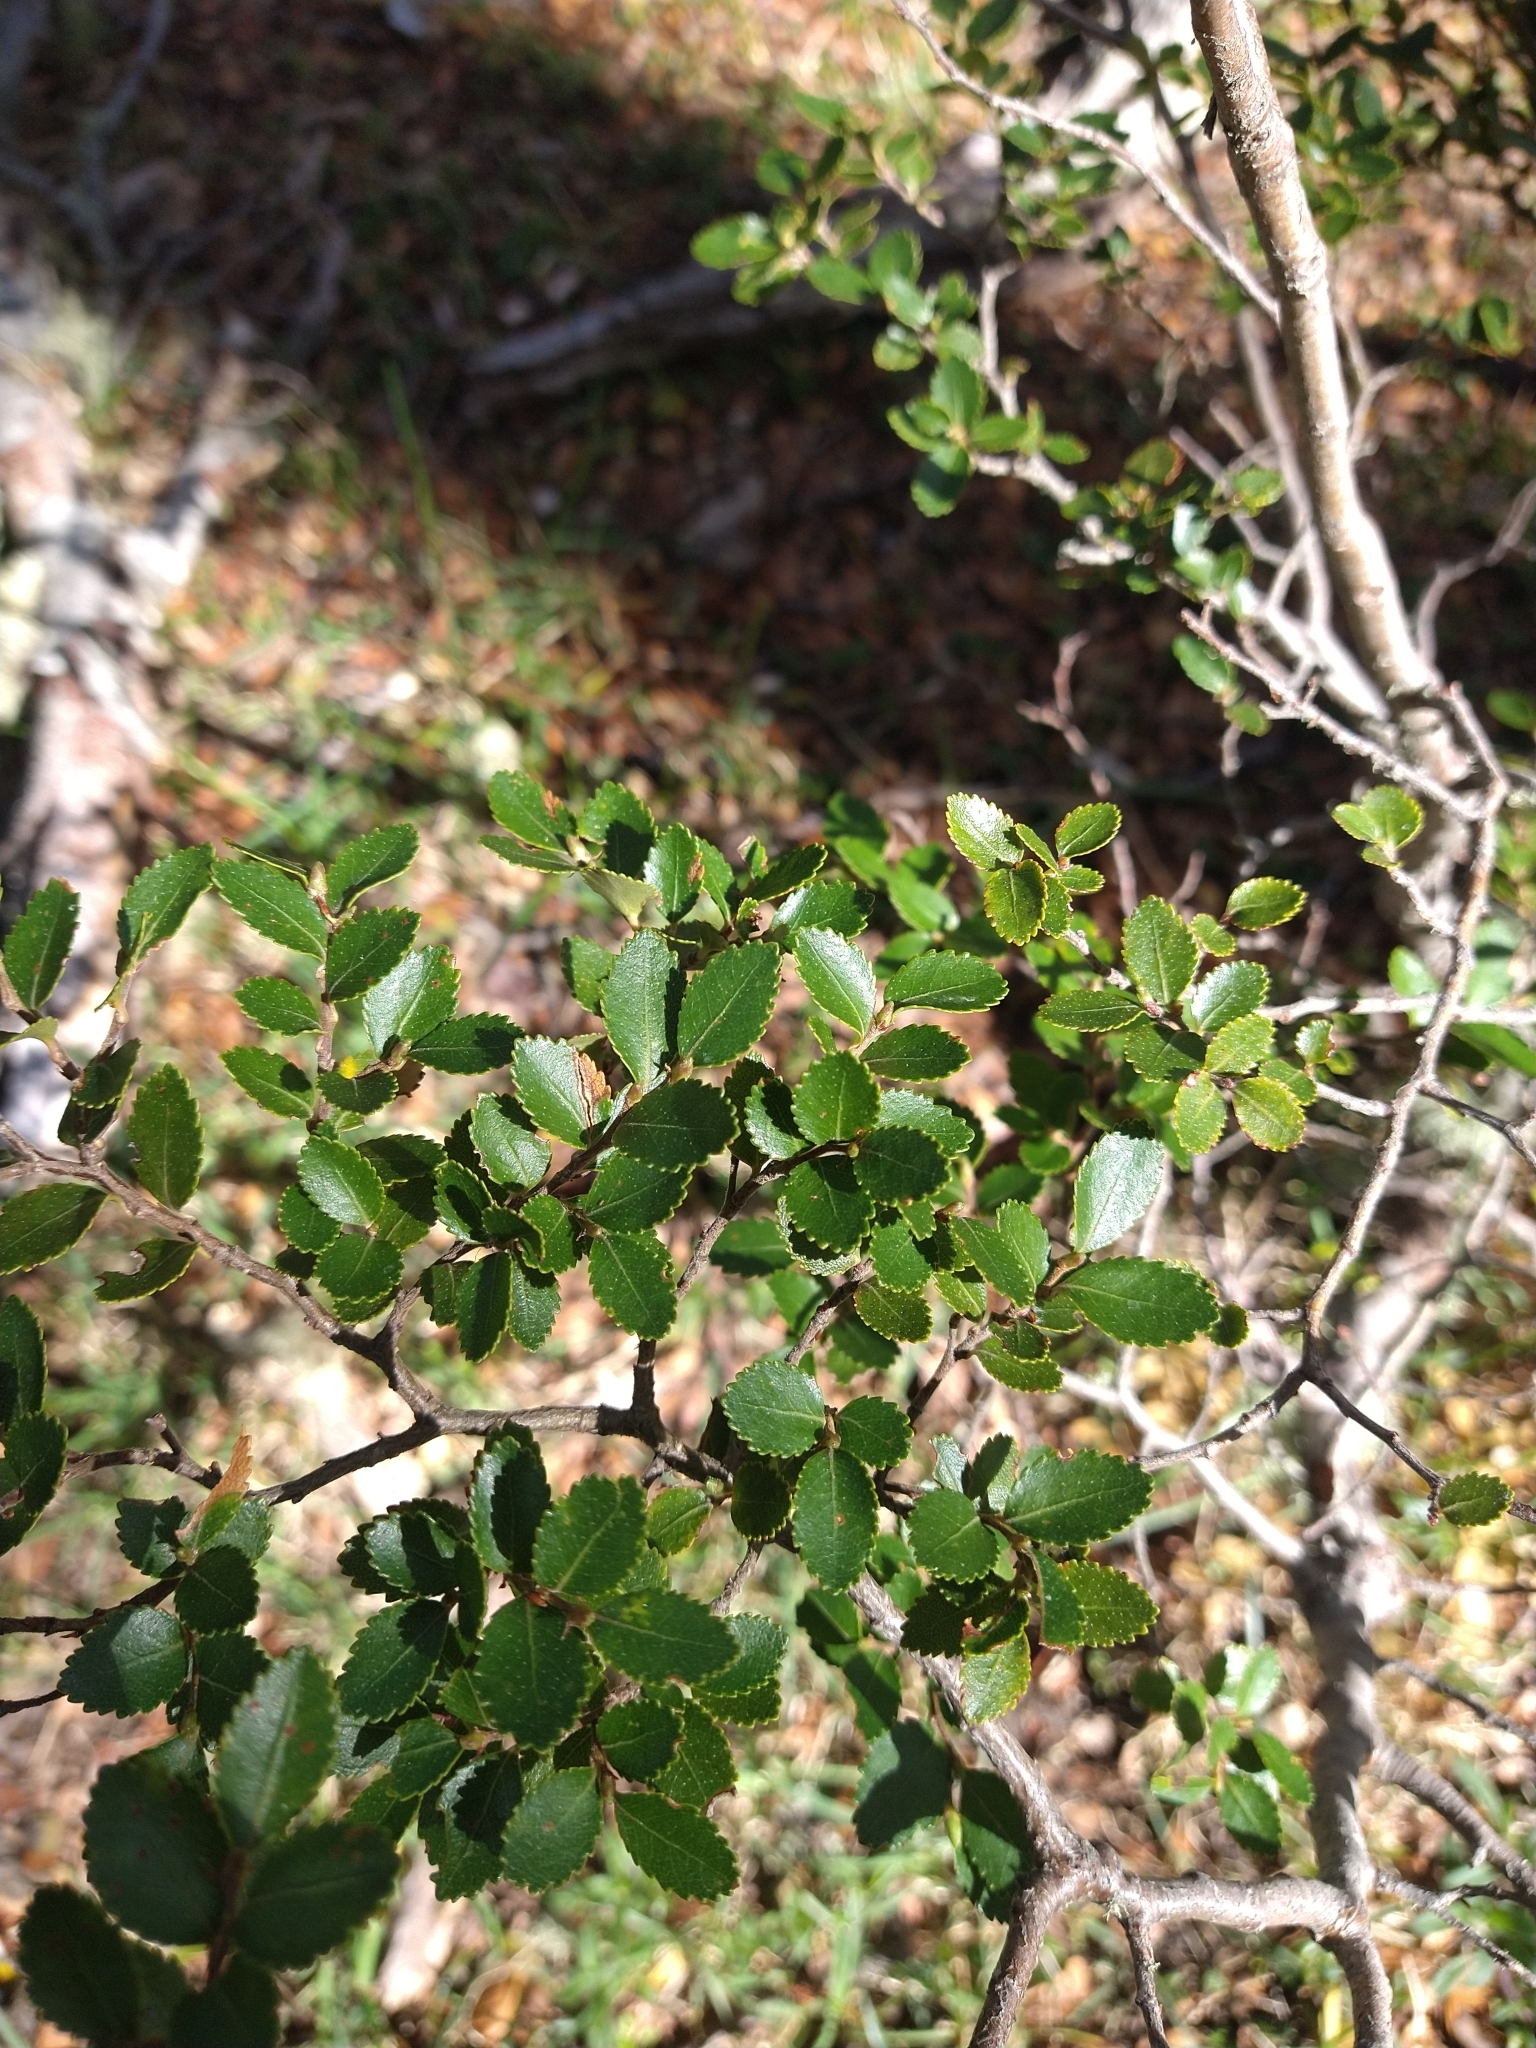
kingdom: Plantae
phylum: Tracheophyta
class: Magnoliopsida
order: Fagales
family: Nothofagaceae
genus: Nothofagus
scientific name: Nothofagus betuloides
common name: Magellan's beech
